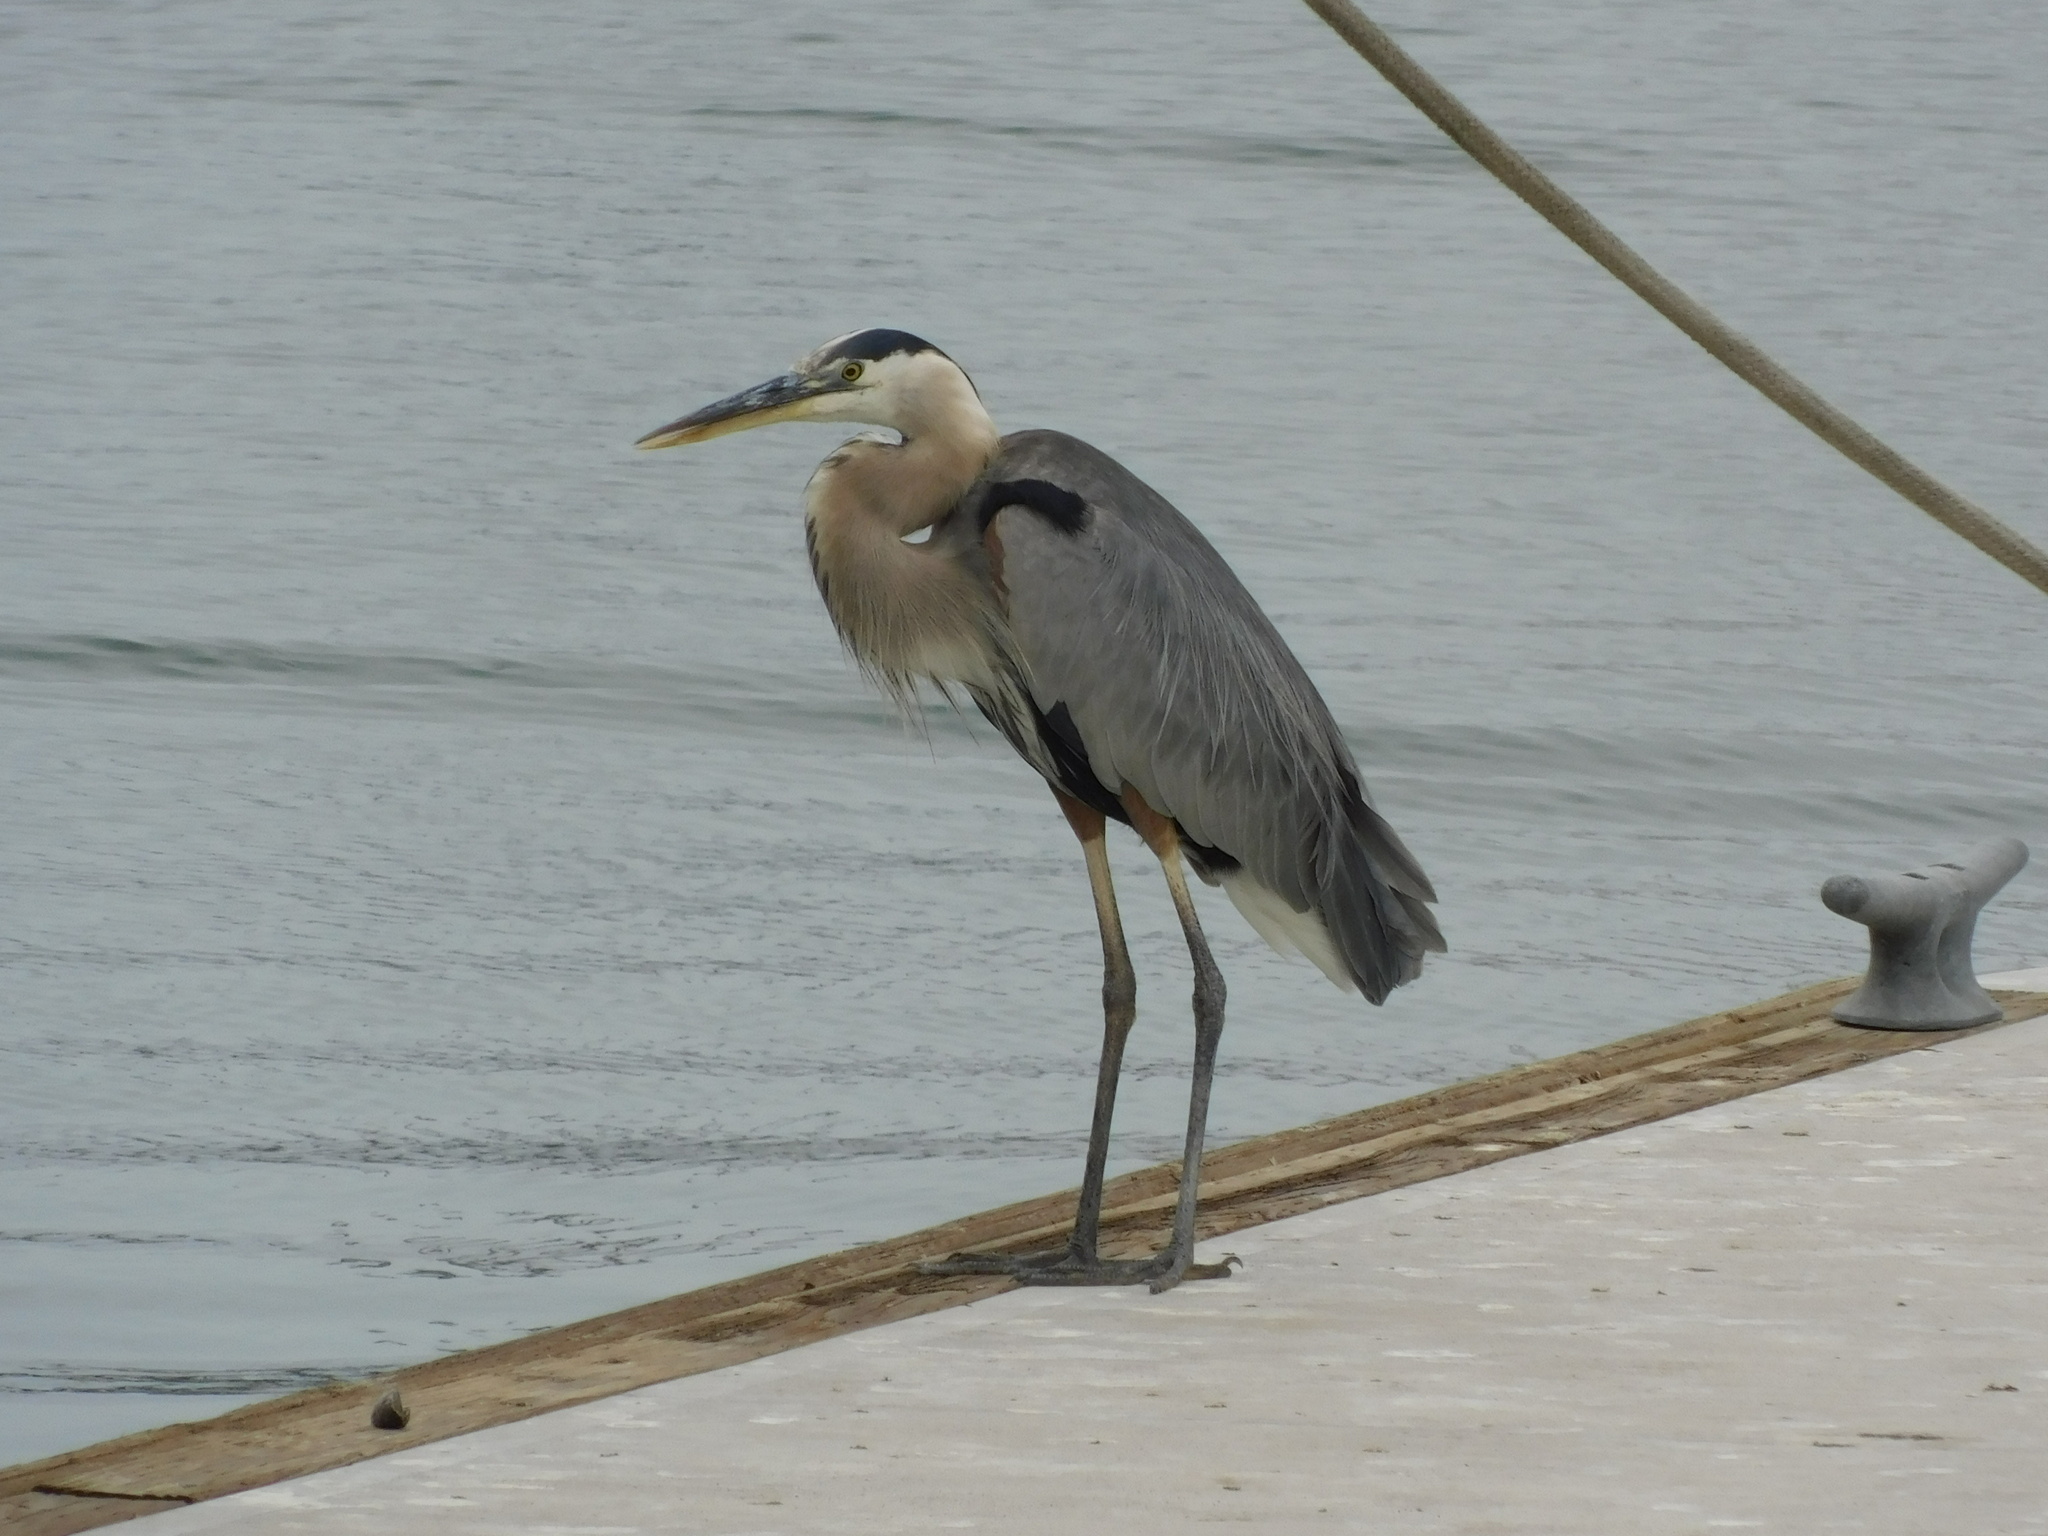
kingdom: Animalia
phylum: Chordata
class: Aves
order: Pelecaniformes
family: Ardeidae
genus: Ardea
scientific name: Ardea herodias
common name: Great blue heron
